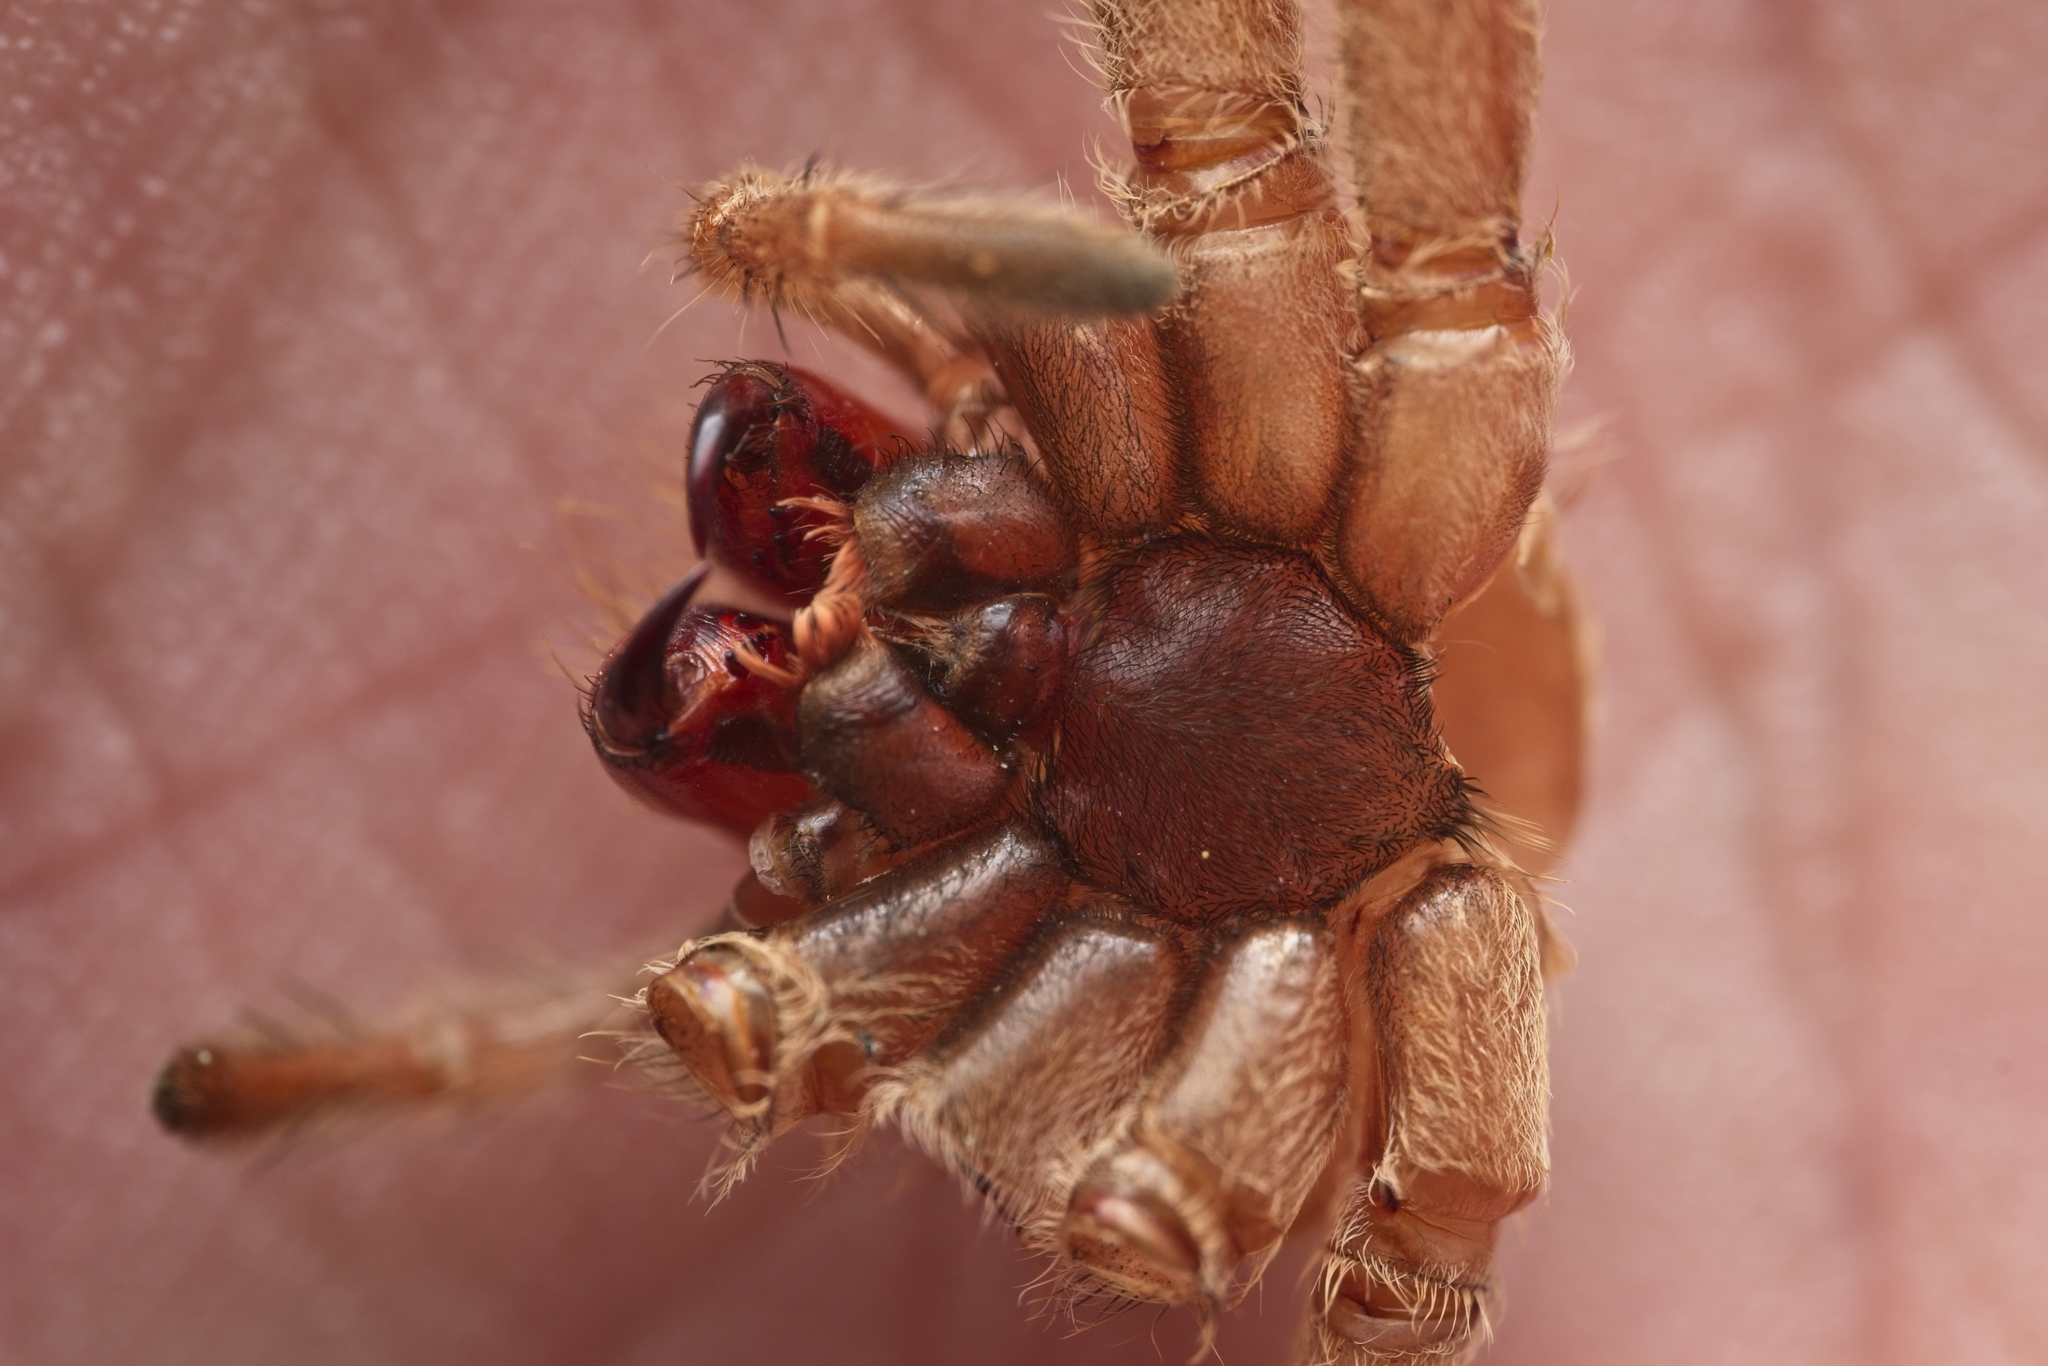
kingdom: Animalia
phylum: Arthropoda
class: Arachnida
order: Araneae
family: Sparassidae
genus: Isopeda
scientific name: Isopeda villosa
